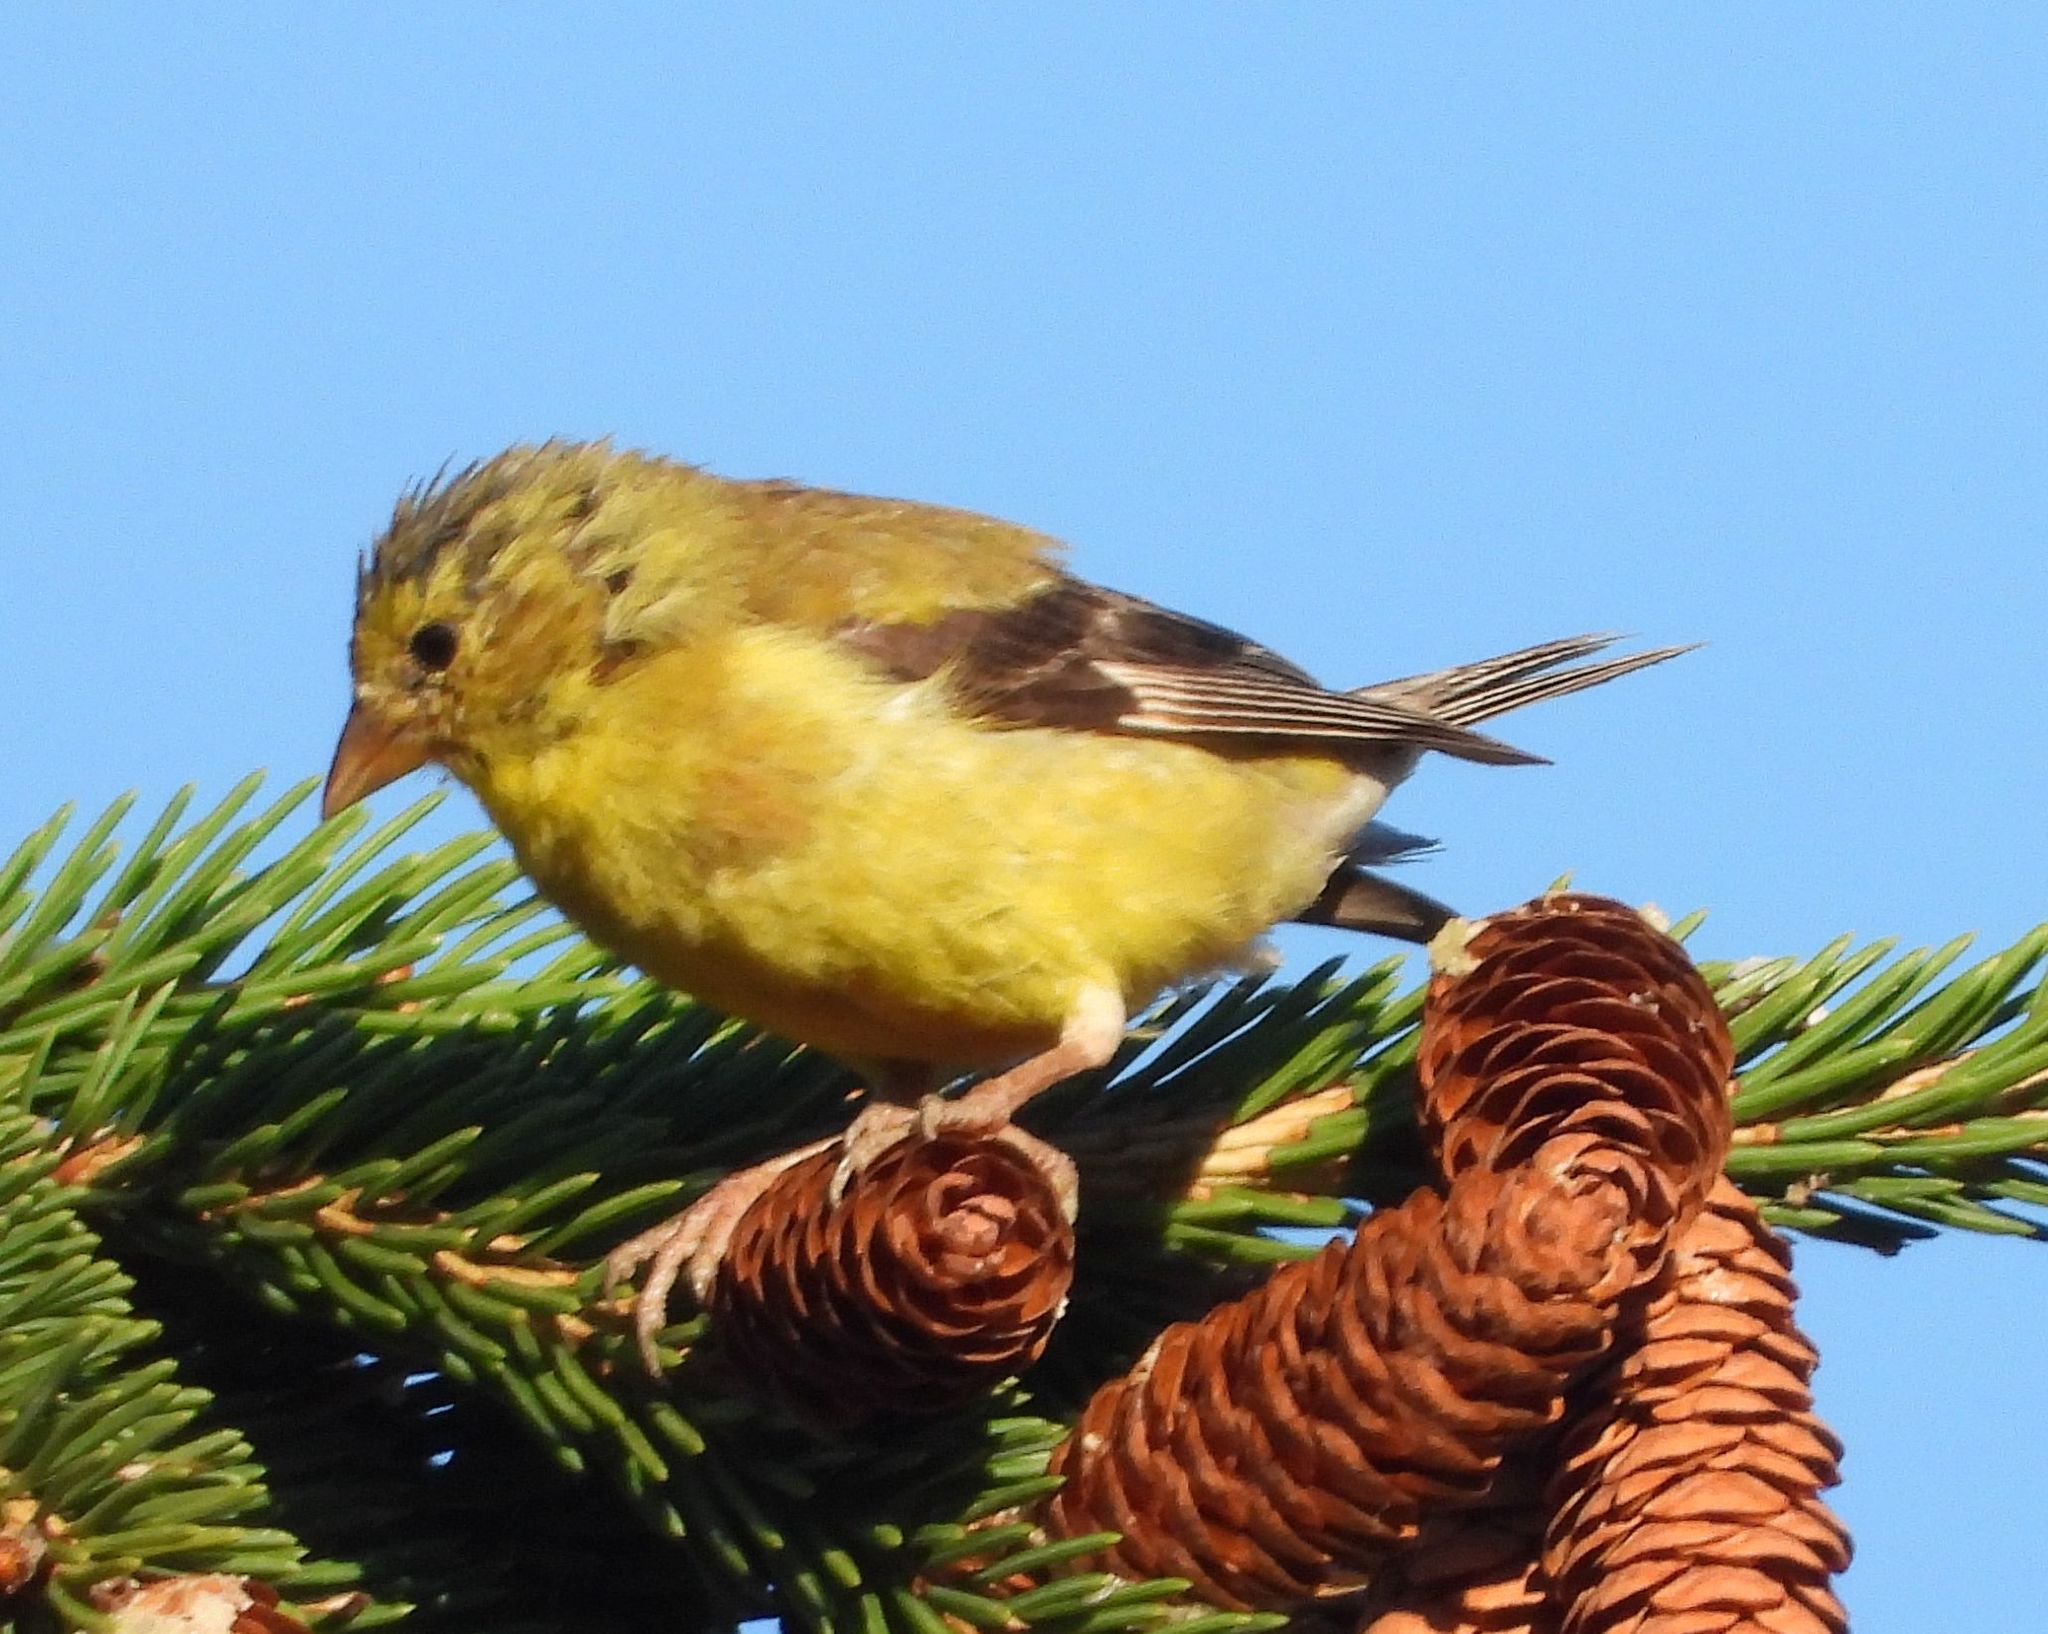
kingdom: Animalia
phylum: Chordata
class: Aves
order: Passeriformes
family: Fringillidae
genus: Spinus
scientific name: Spinus tristis
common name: American goldfinch
